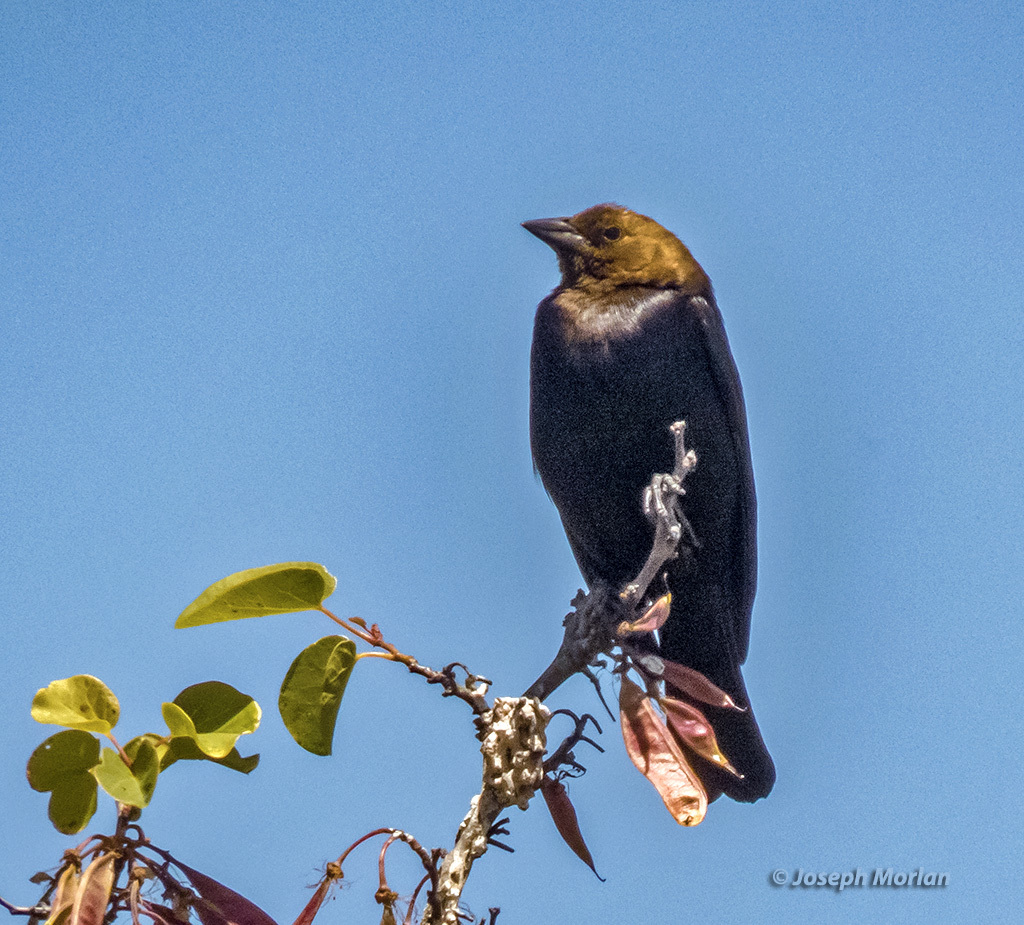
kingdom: Animalia
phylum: Chordata
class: Aves
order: Passeriformes
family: Icteridae
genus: Molothrus
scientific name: Molothrus ater
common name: Brown-headed cowbird
